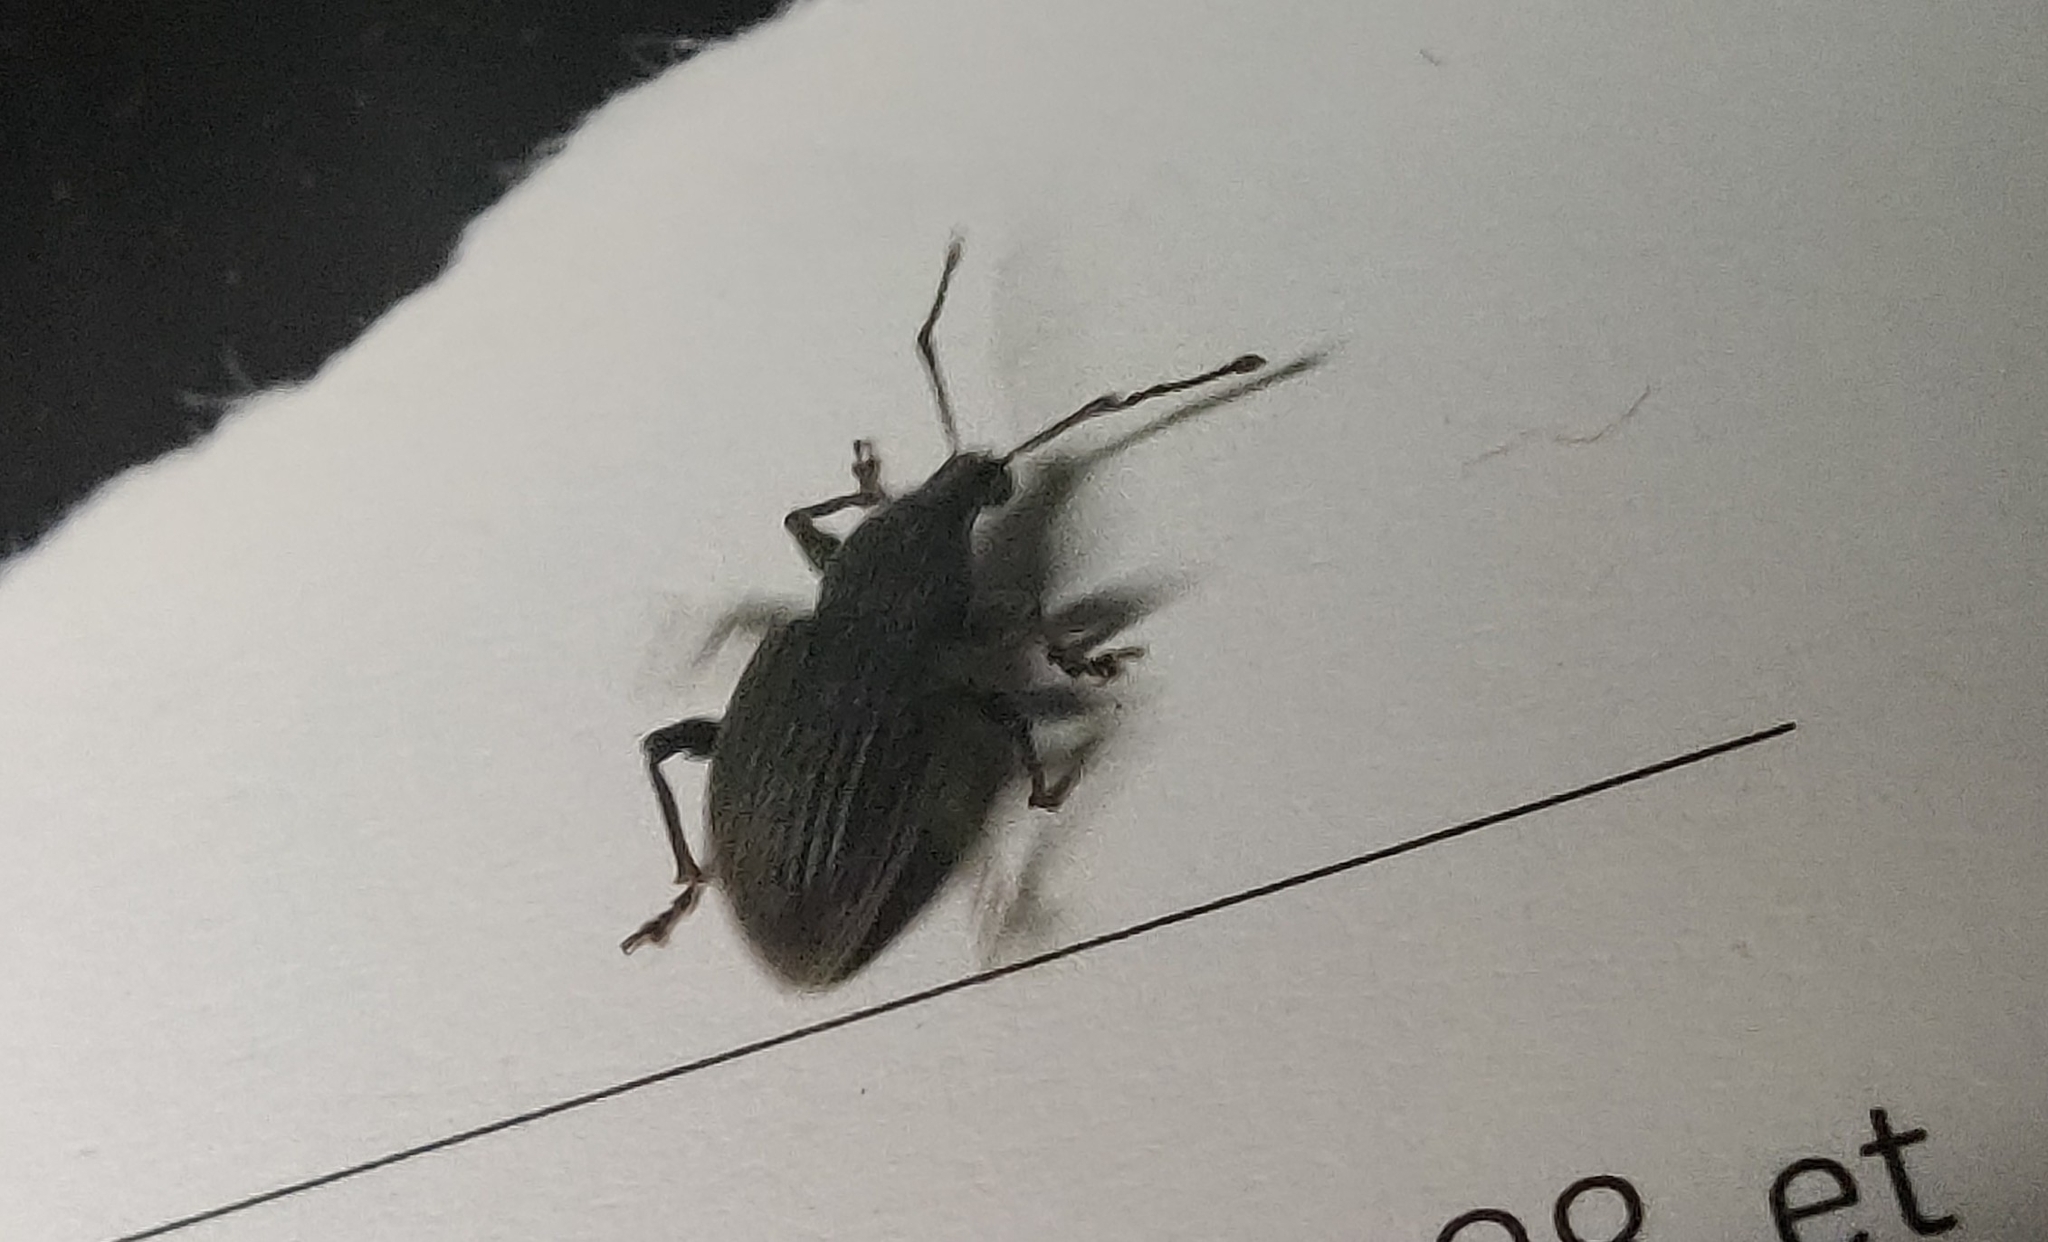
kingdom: Animalia
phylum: Arthropoda
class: Insecta
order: Coleoptera
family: Curculionidae
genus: Otiorhynchus
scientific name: Otiorhynchus sulcatus
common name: Black vine weevil
